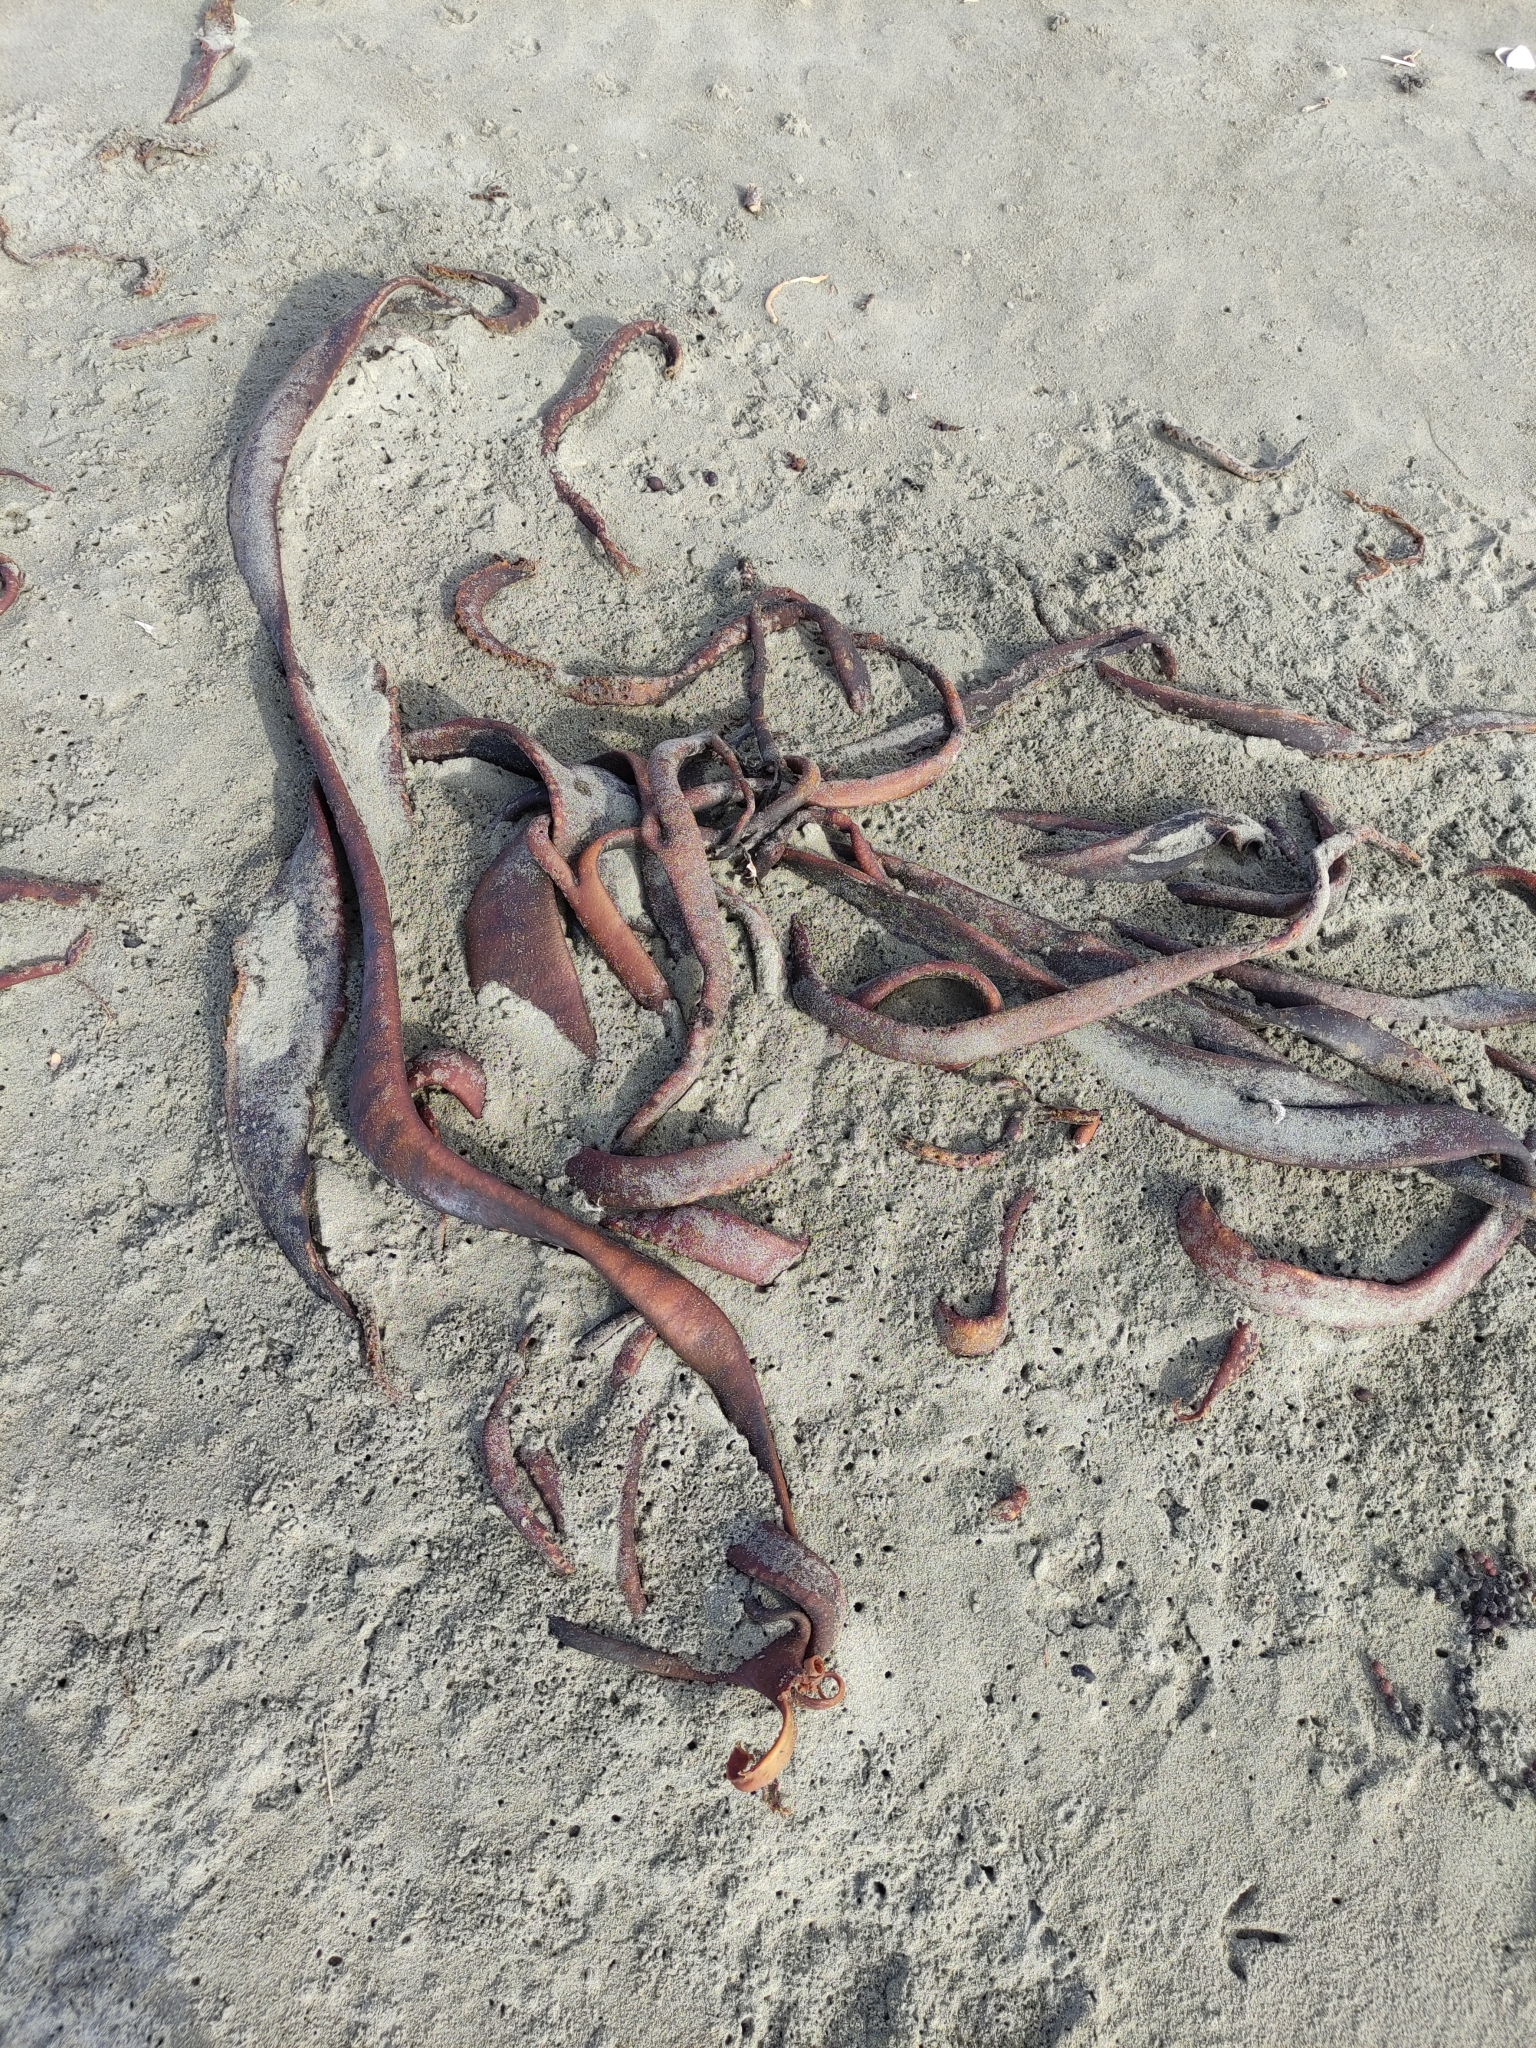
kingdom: Chromista
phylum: Ochrophyta
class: Phaeophyceae
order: Fucales
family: Durvillaeaceae
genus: Durvillaea
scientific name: Durvillaea antarctica
